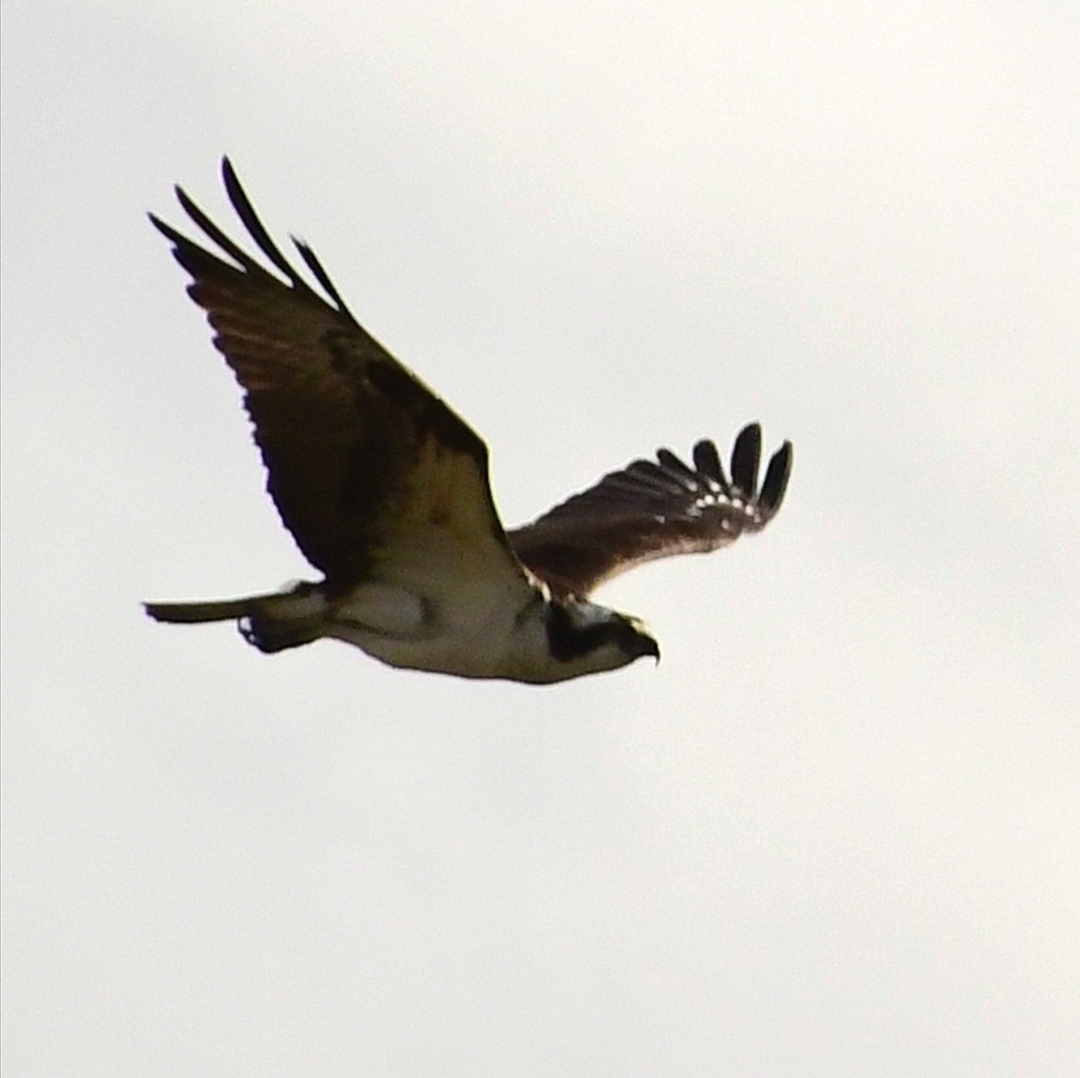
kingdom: Animalia
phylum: Chordata
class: Aves
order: Accipitriformes
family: Pandionidae
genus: Pandion
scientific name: Pandion haliaetus
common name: Osprey
